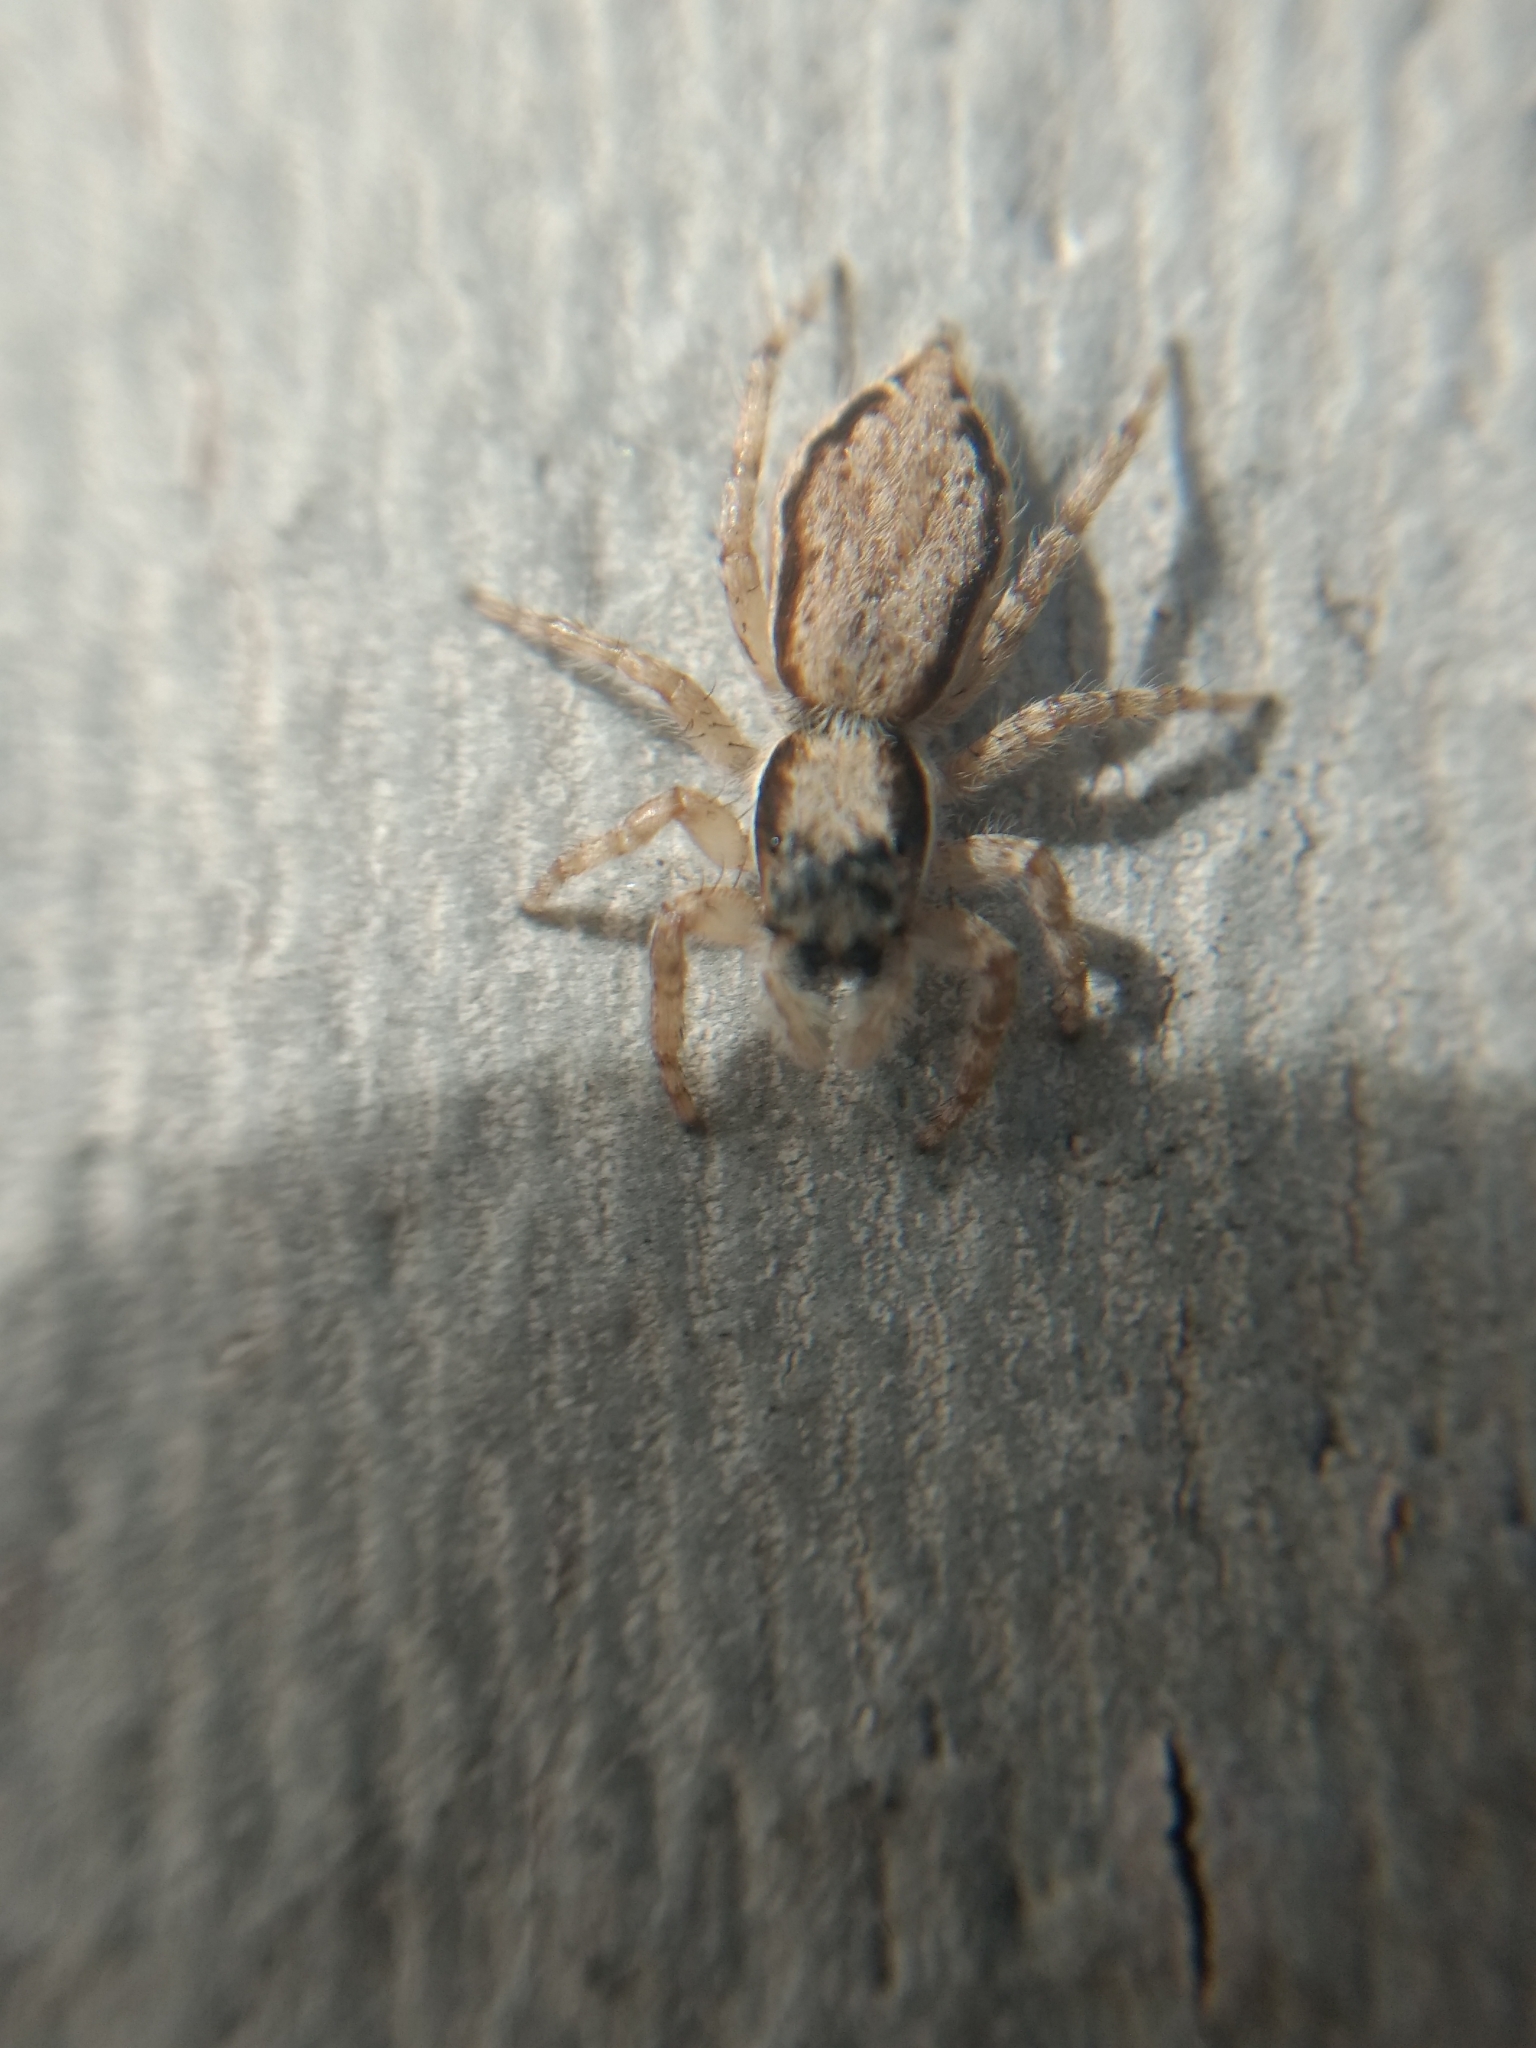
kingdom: Animalia
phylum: Arthropoda
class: Arachnida
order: Araneae
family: Salticidae
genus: Menemerus
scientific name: Menemerus bivittatus
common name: Gray wall jumper
